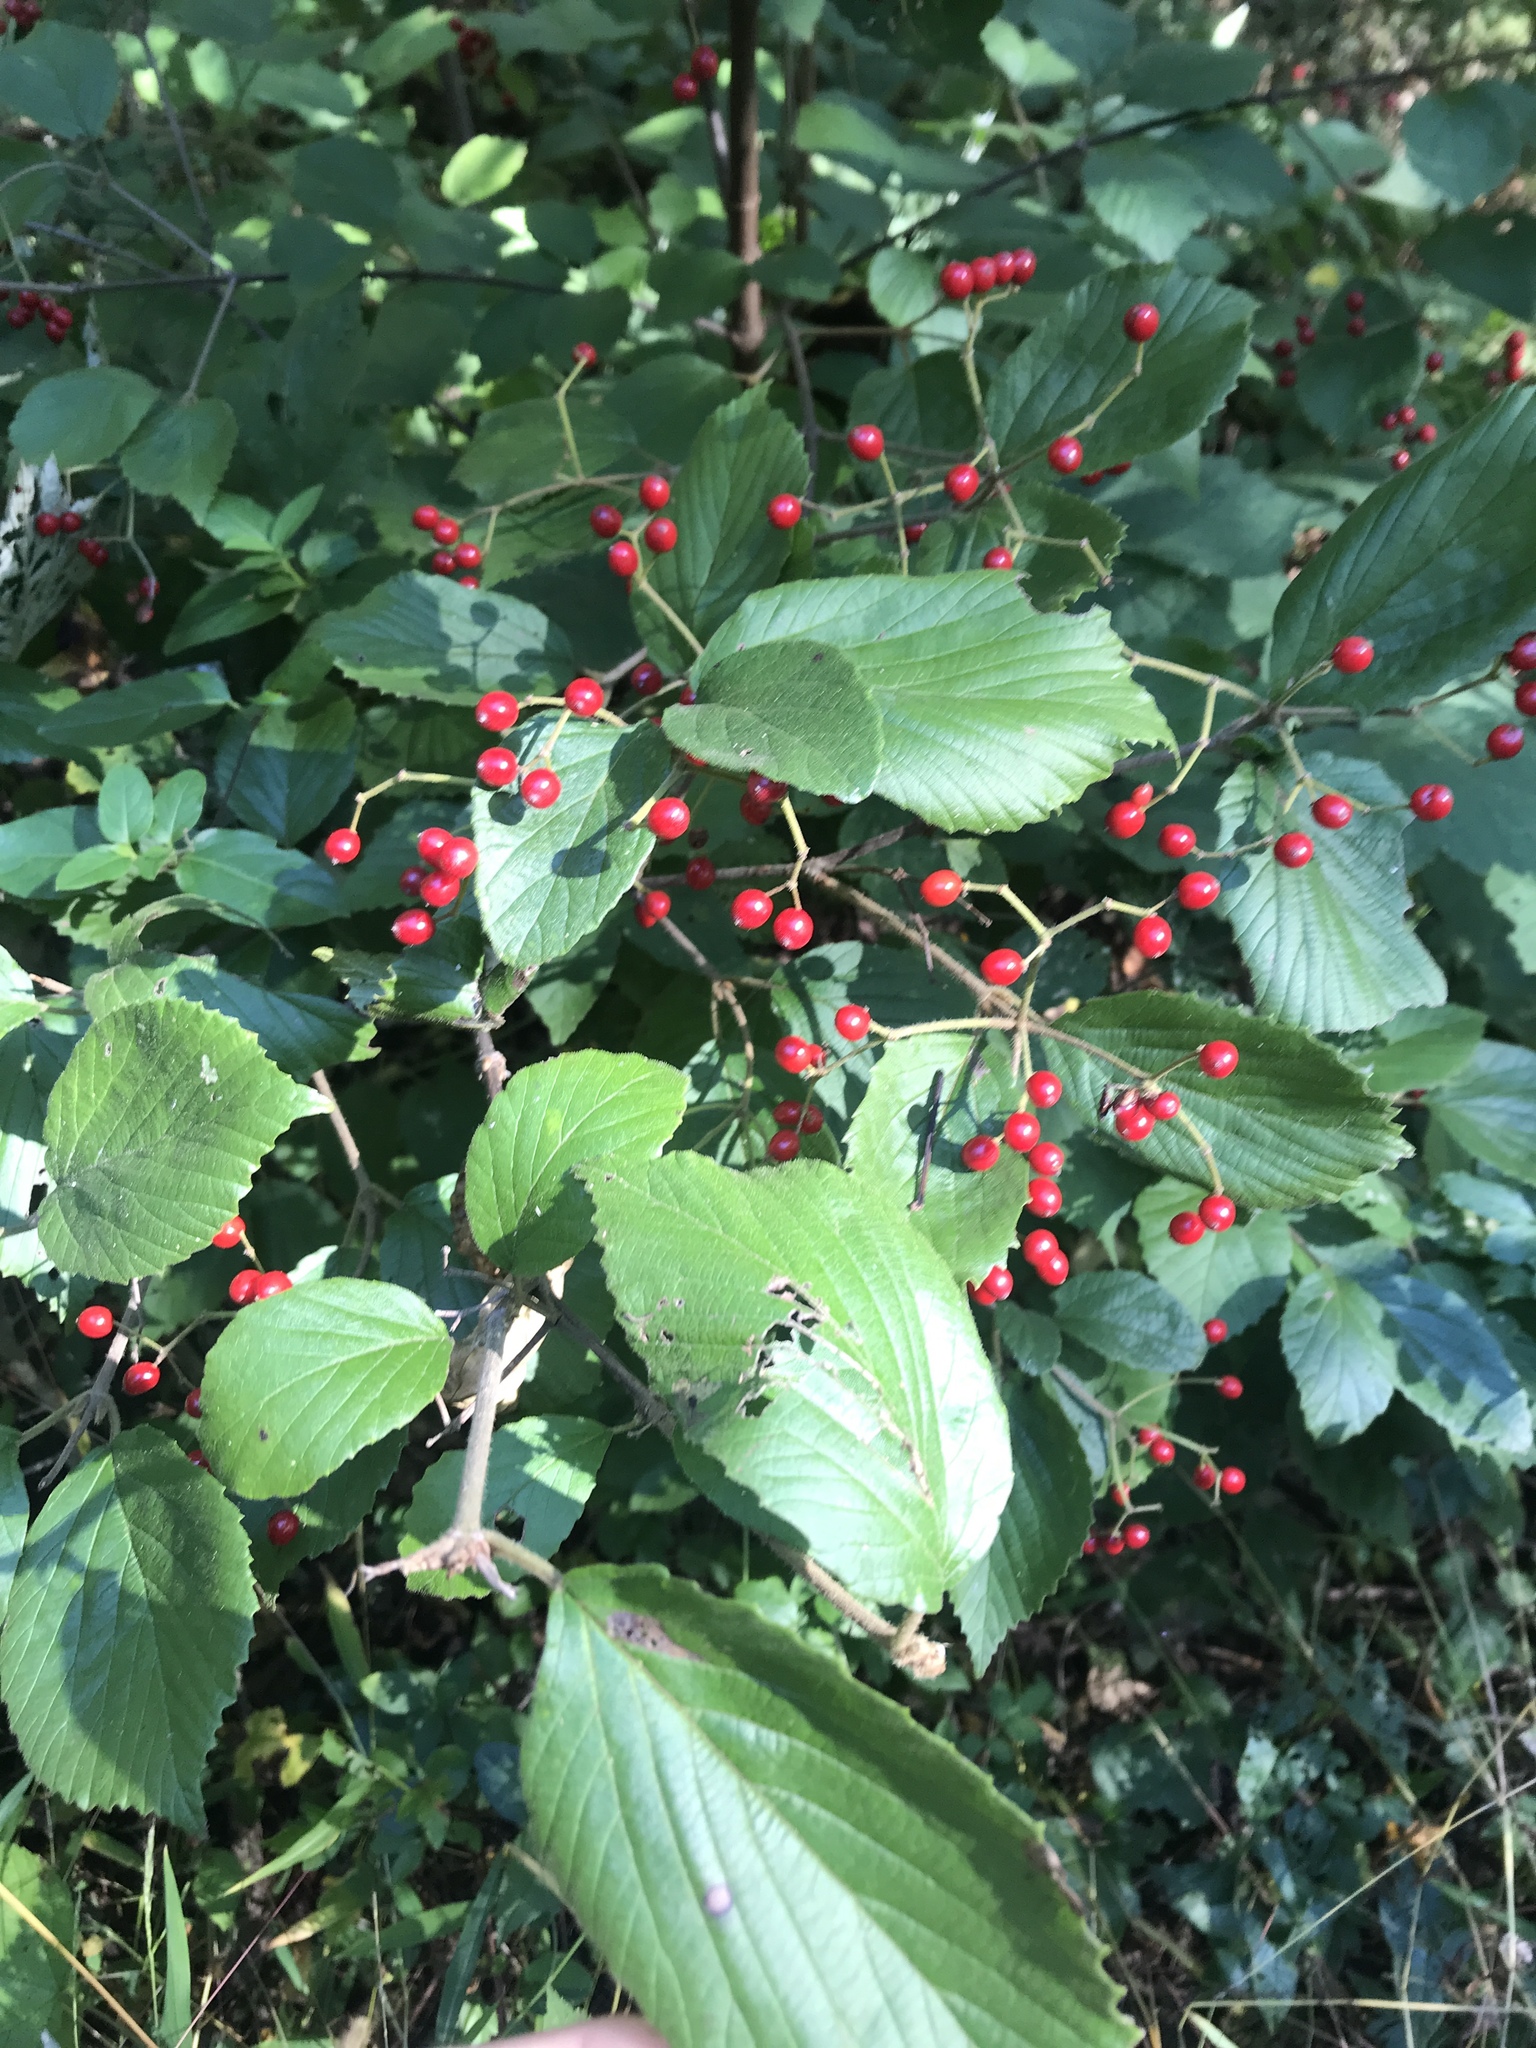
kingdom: Plantae
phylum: Tracheophyta
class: Magnoliopsida
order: Dipsacales
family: Viburnaceae
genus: Viburnum
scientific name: Viburnum dilatatum
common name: Linden arrowwood
